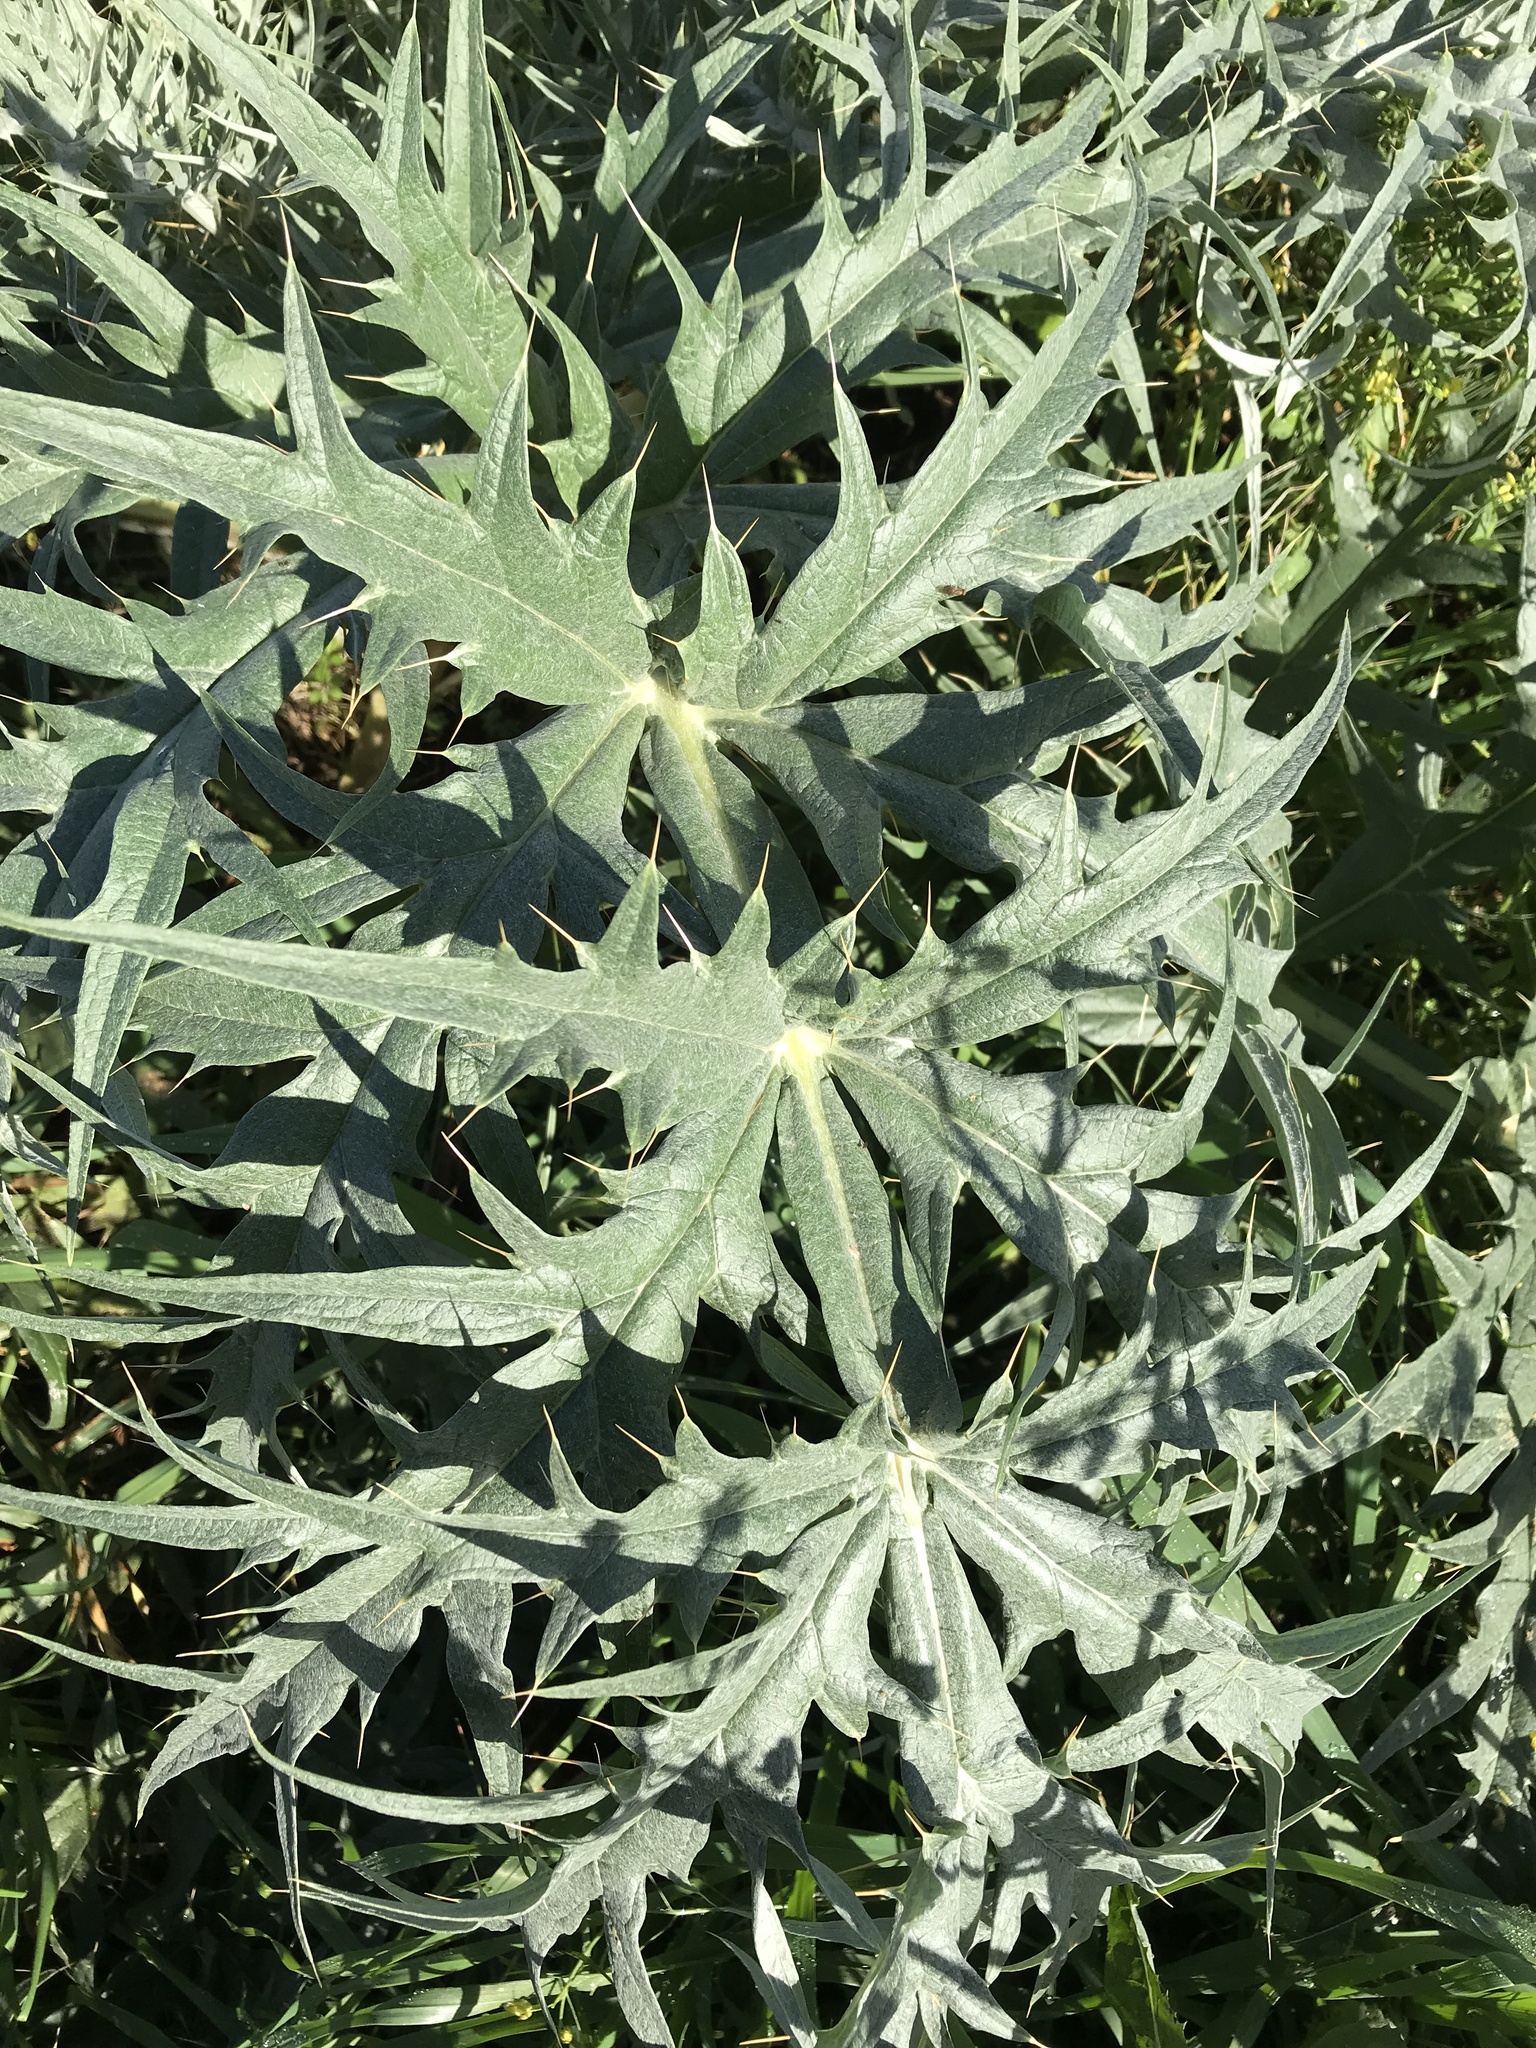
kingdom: Plantae
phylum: Tracheophyta
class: Magnoliopsida
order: Asterales
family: Asteraceae
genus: Cynara
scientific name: Cynara cardunculus
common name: Globe artichoke
